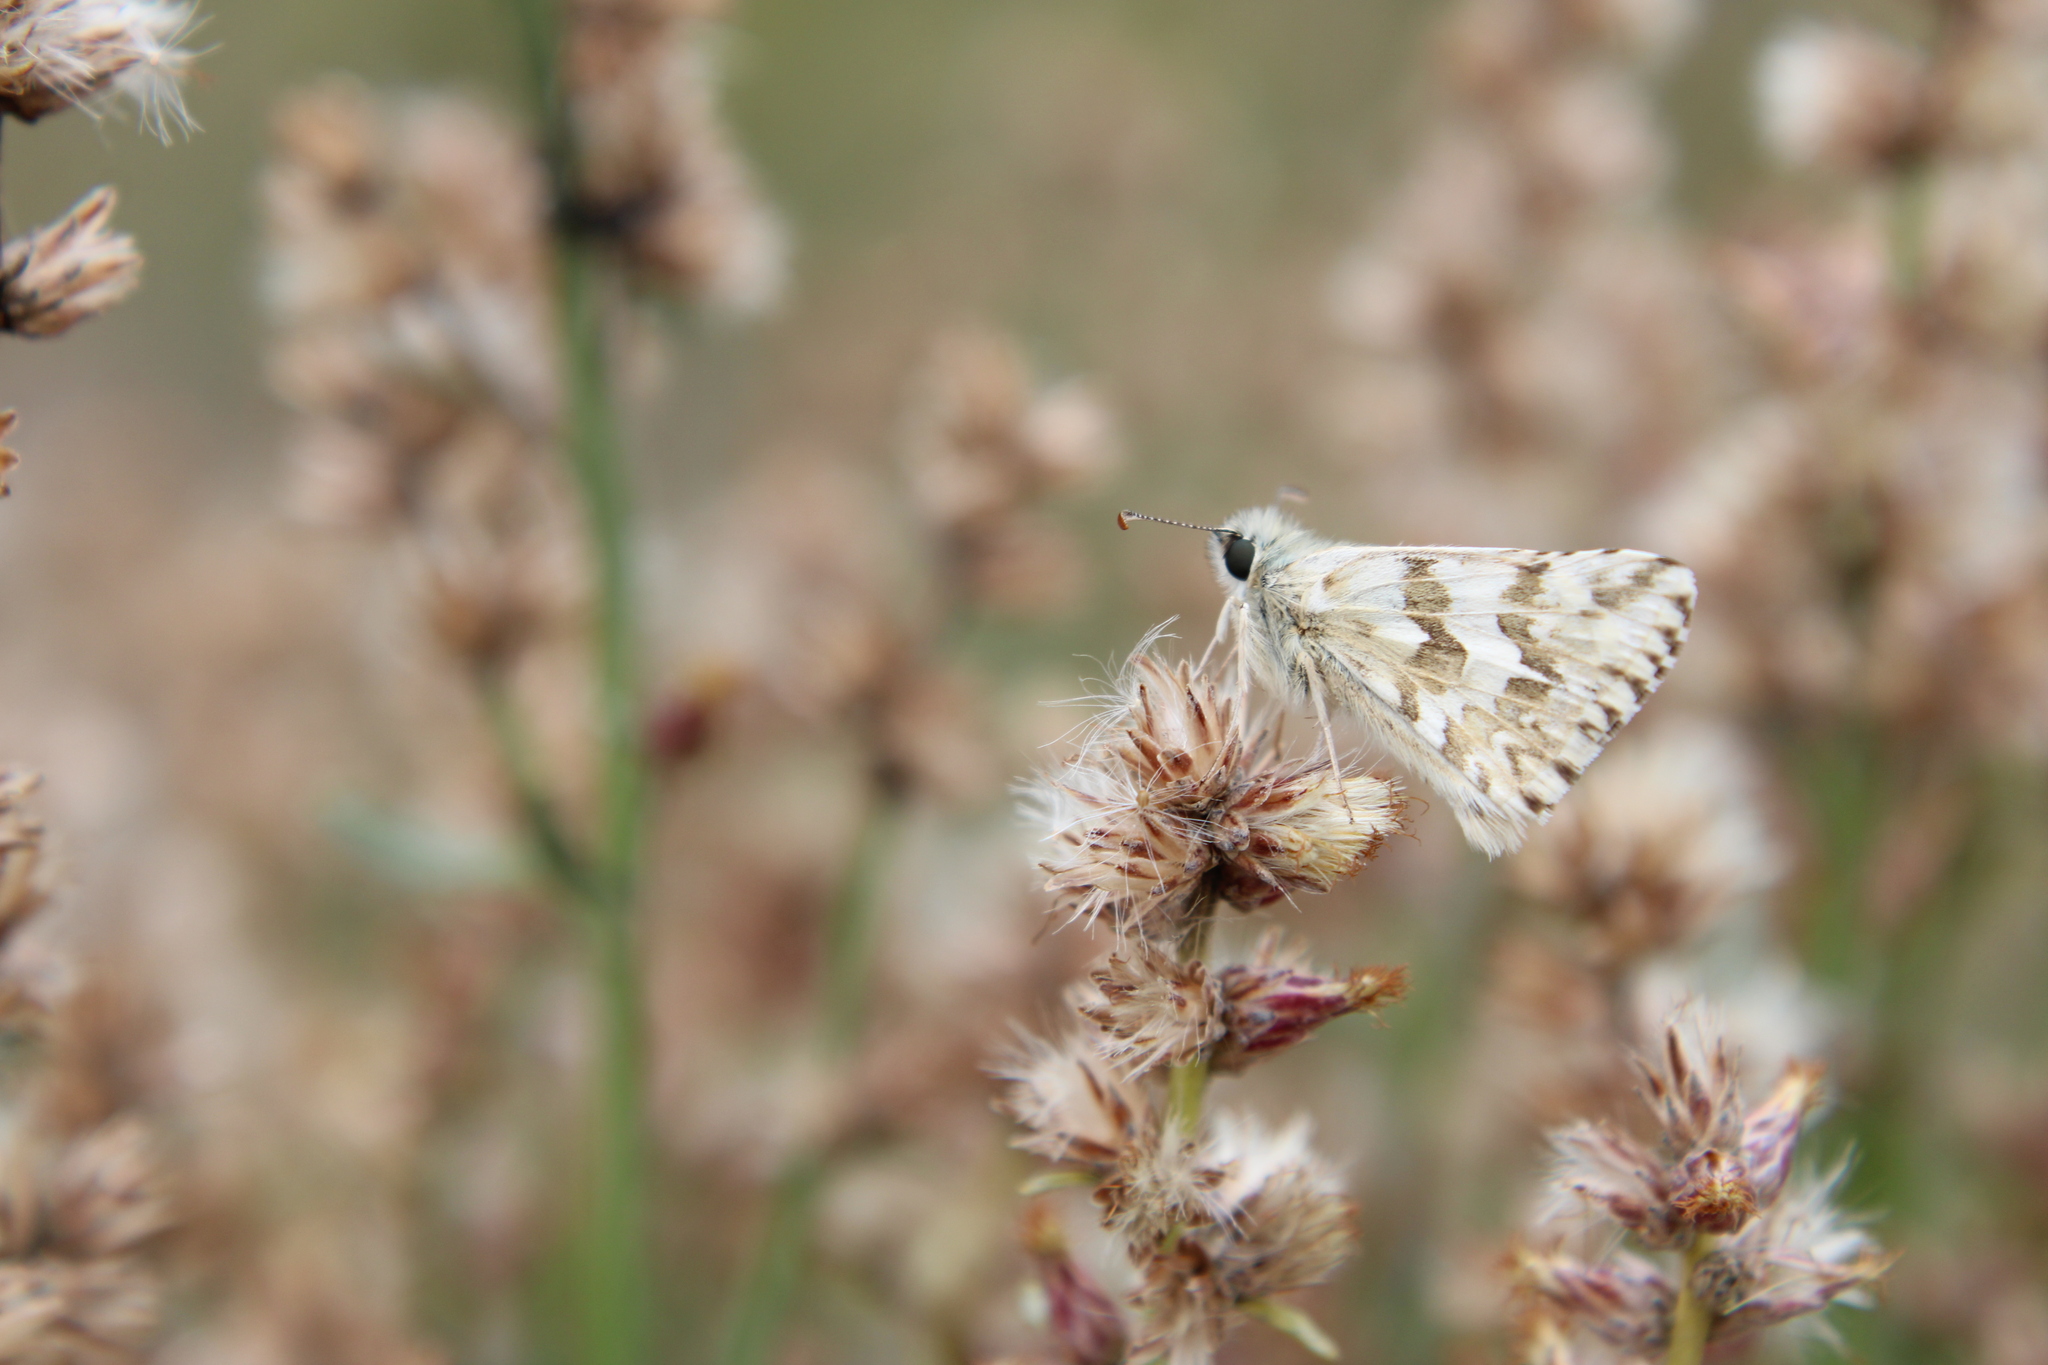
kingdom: Animalia
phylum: Arthropoda
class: Insecta
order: Lepidoptera
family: Hesperiidae
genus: Heliopetes
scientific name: Heliopetes americanus
